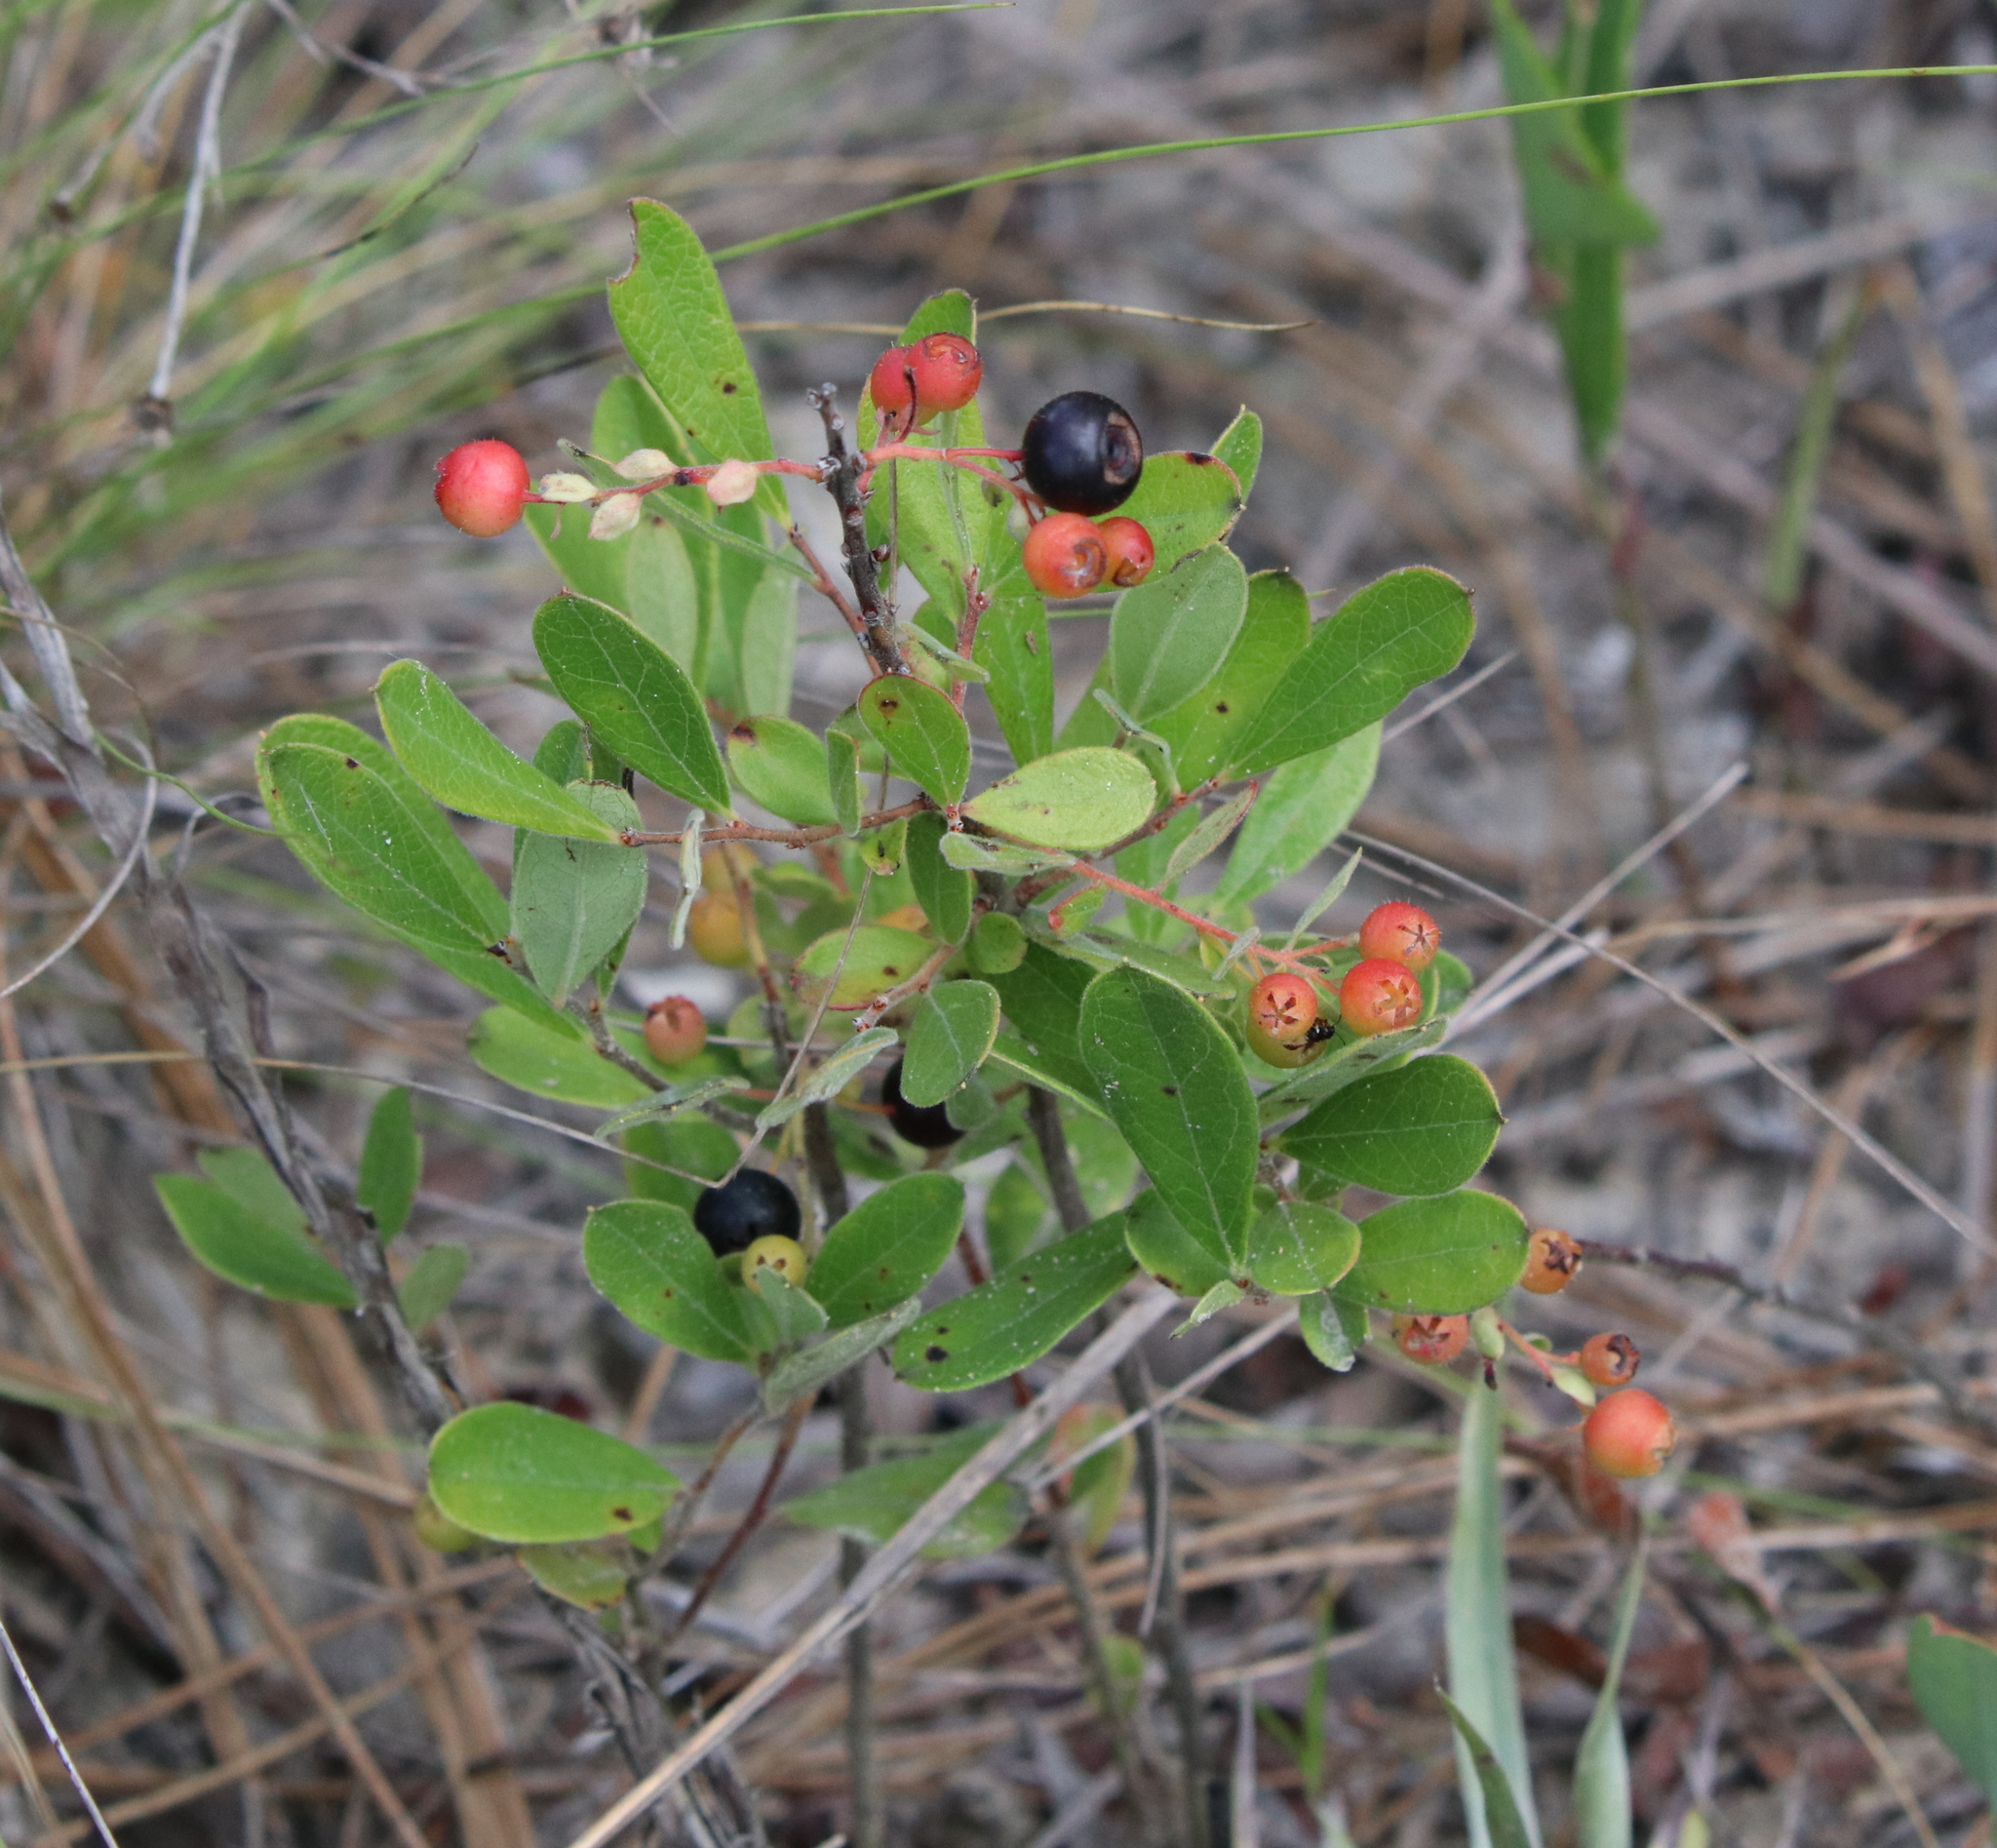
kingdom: Plantae
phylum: Tracheophyta
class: Magnoliopsida
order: Ericales
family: Ericaceae
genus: Gaylussacia
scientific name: Gaylussacia dumosa
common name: Dwarf huckleberry
